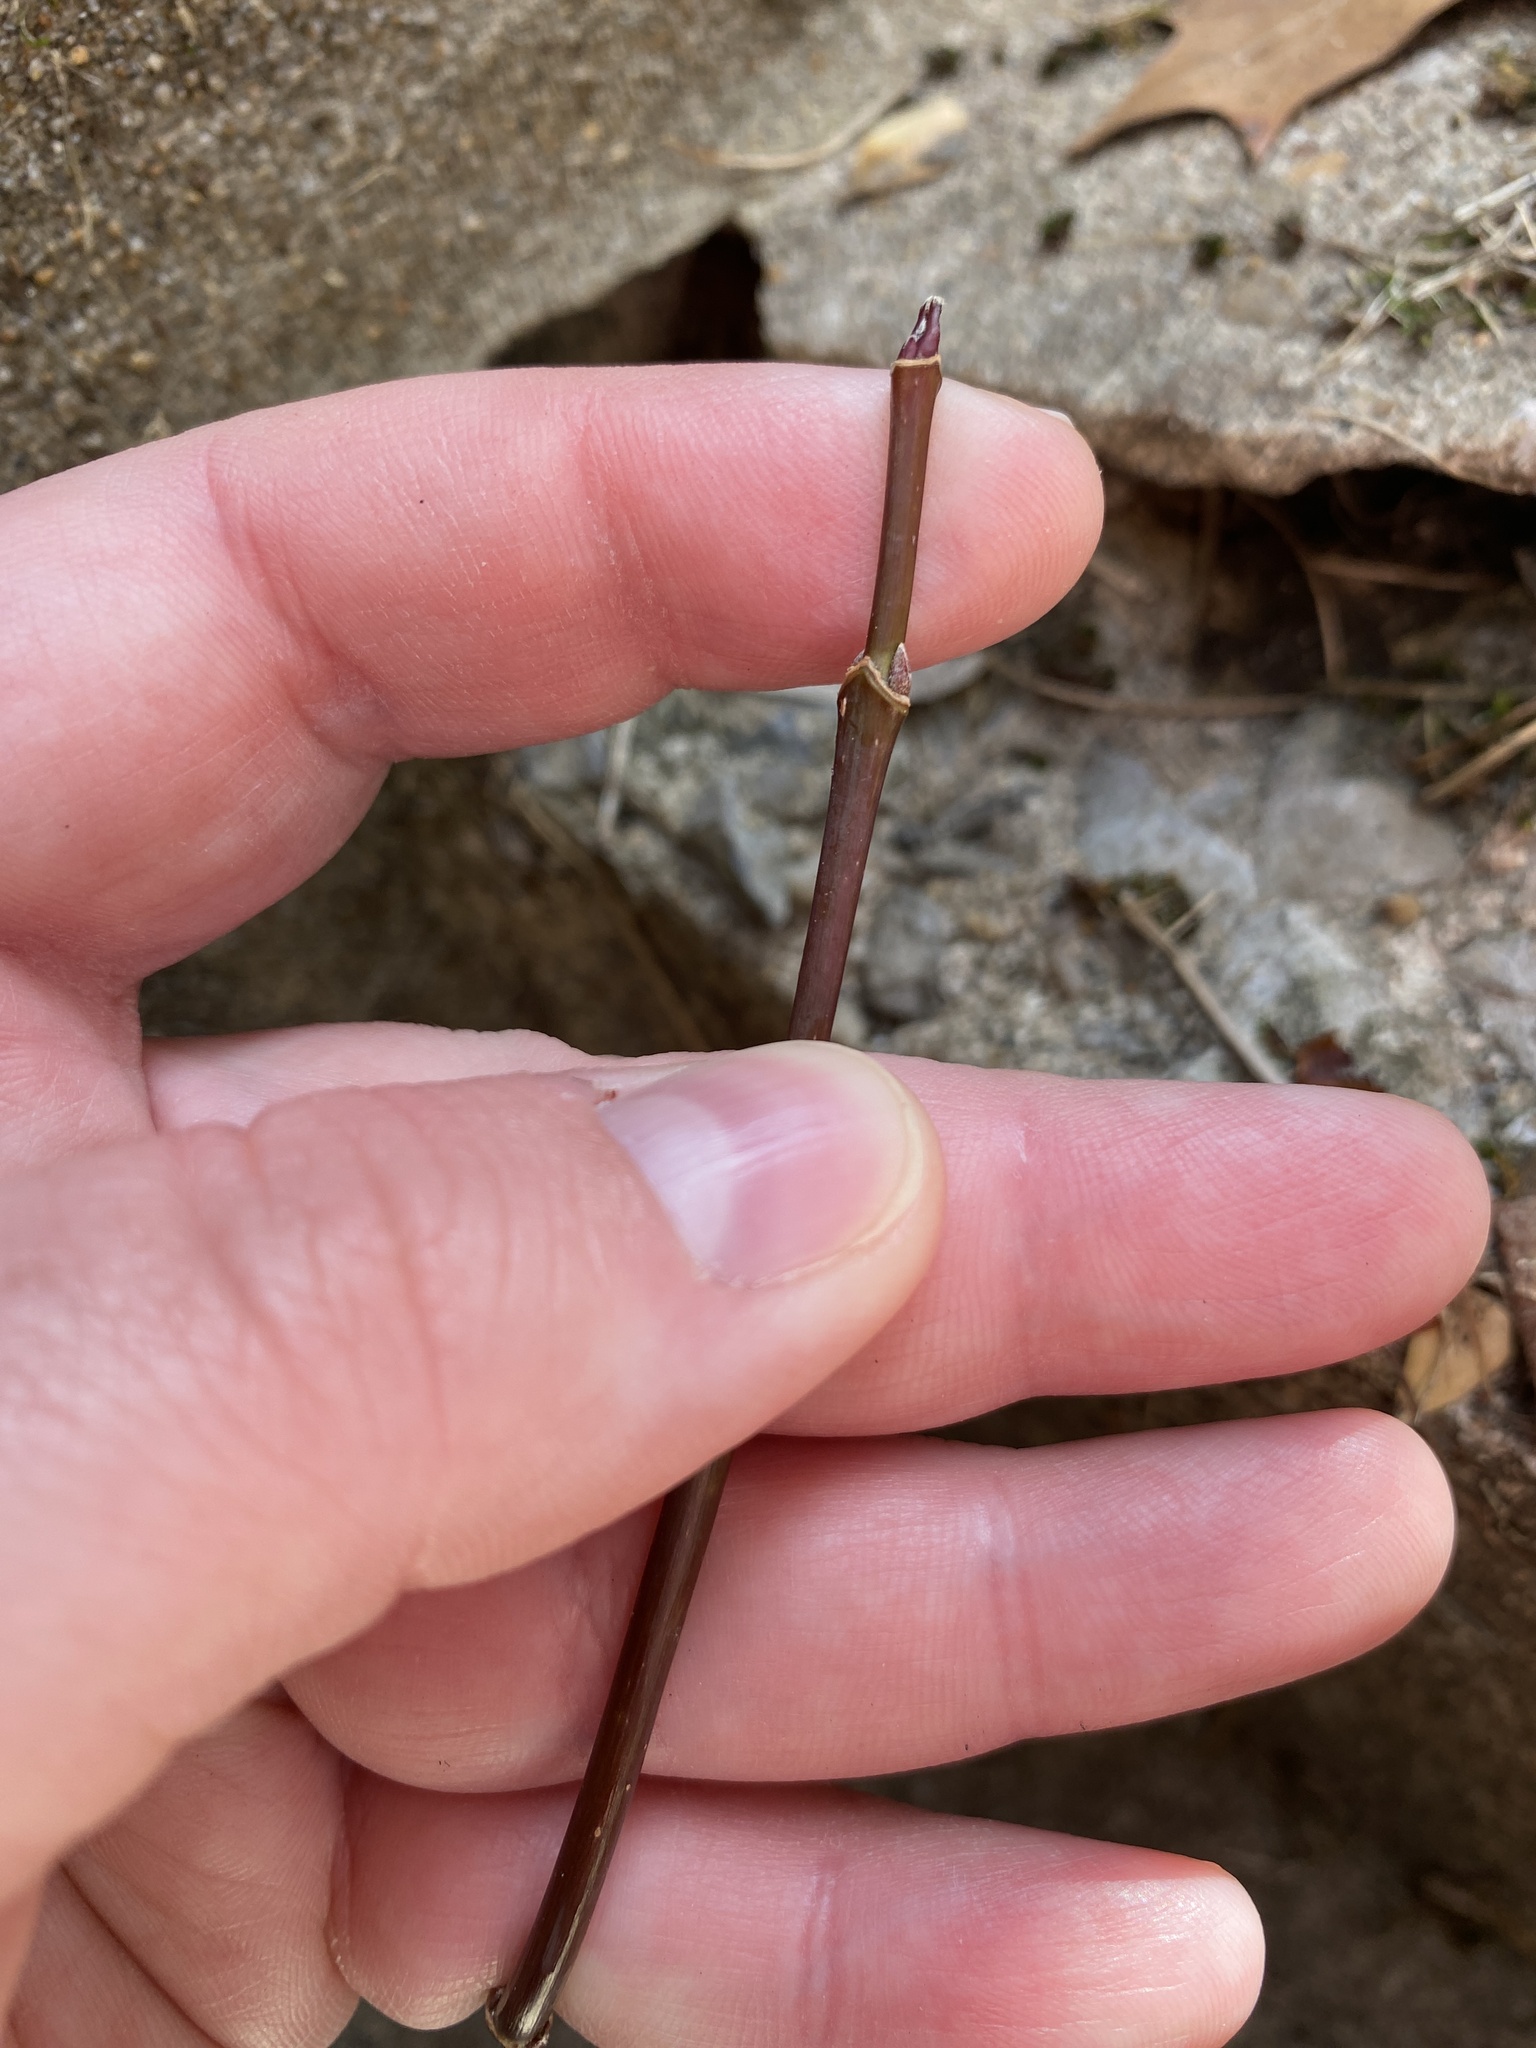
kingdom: Plantae
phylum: Tracheophyta
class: Magnoliopsida
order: Sapindales
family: Sapindaceae
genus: Acer
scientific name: Acer negundo
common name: Ashleaf maple
